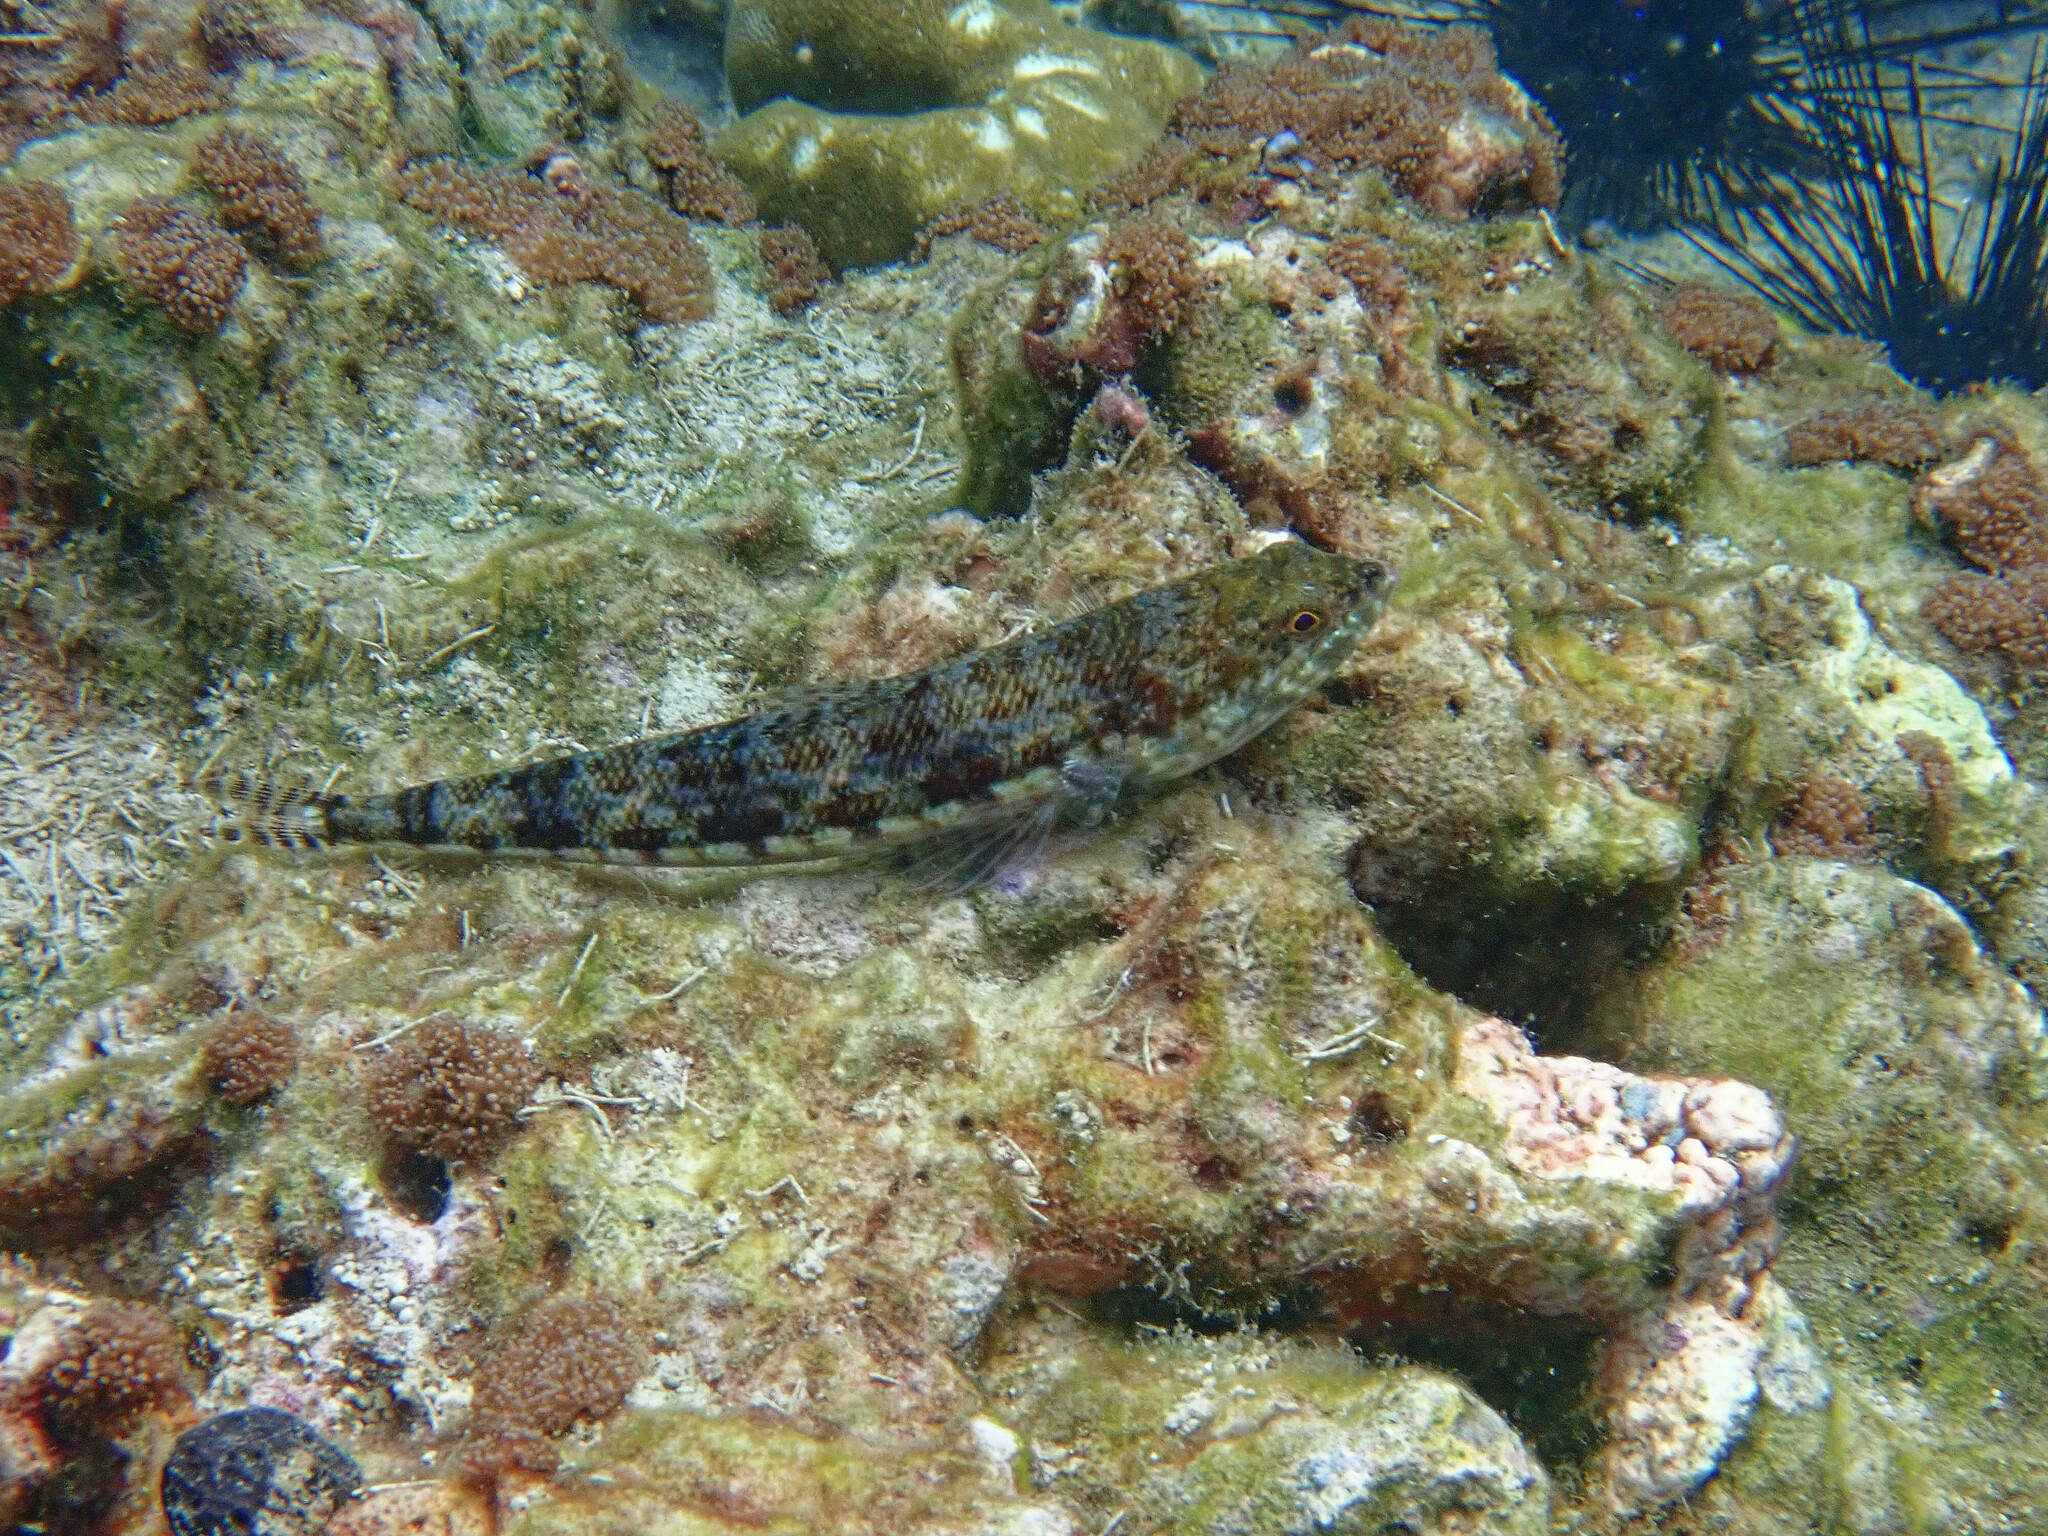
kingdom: Animalia
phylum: Chordata
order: Aulopiformes
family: Synodontidae
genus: Synodus
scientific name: Synodus variegatus
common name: Variegated lizardfish
